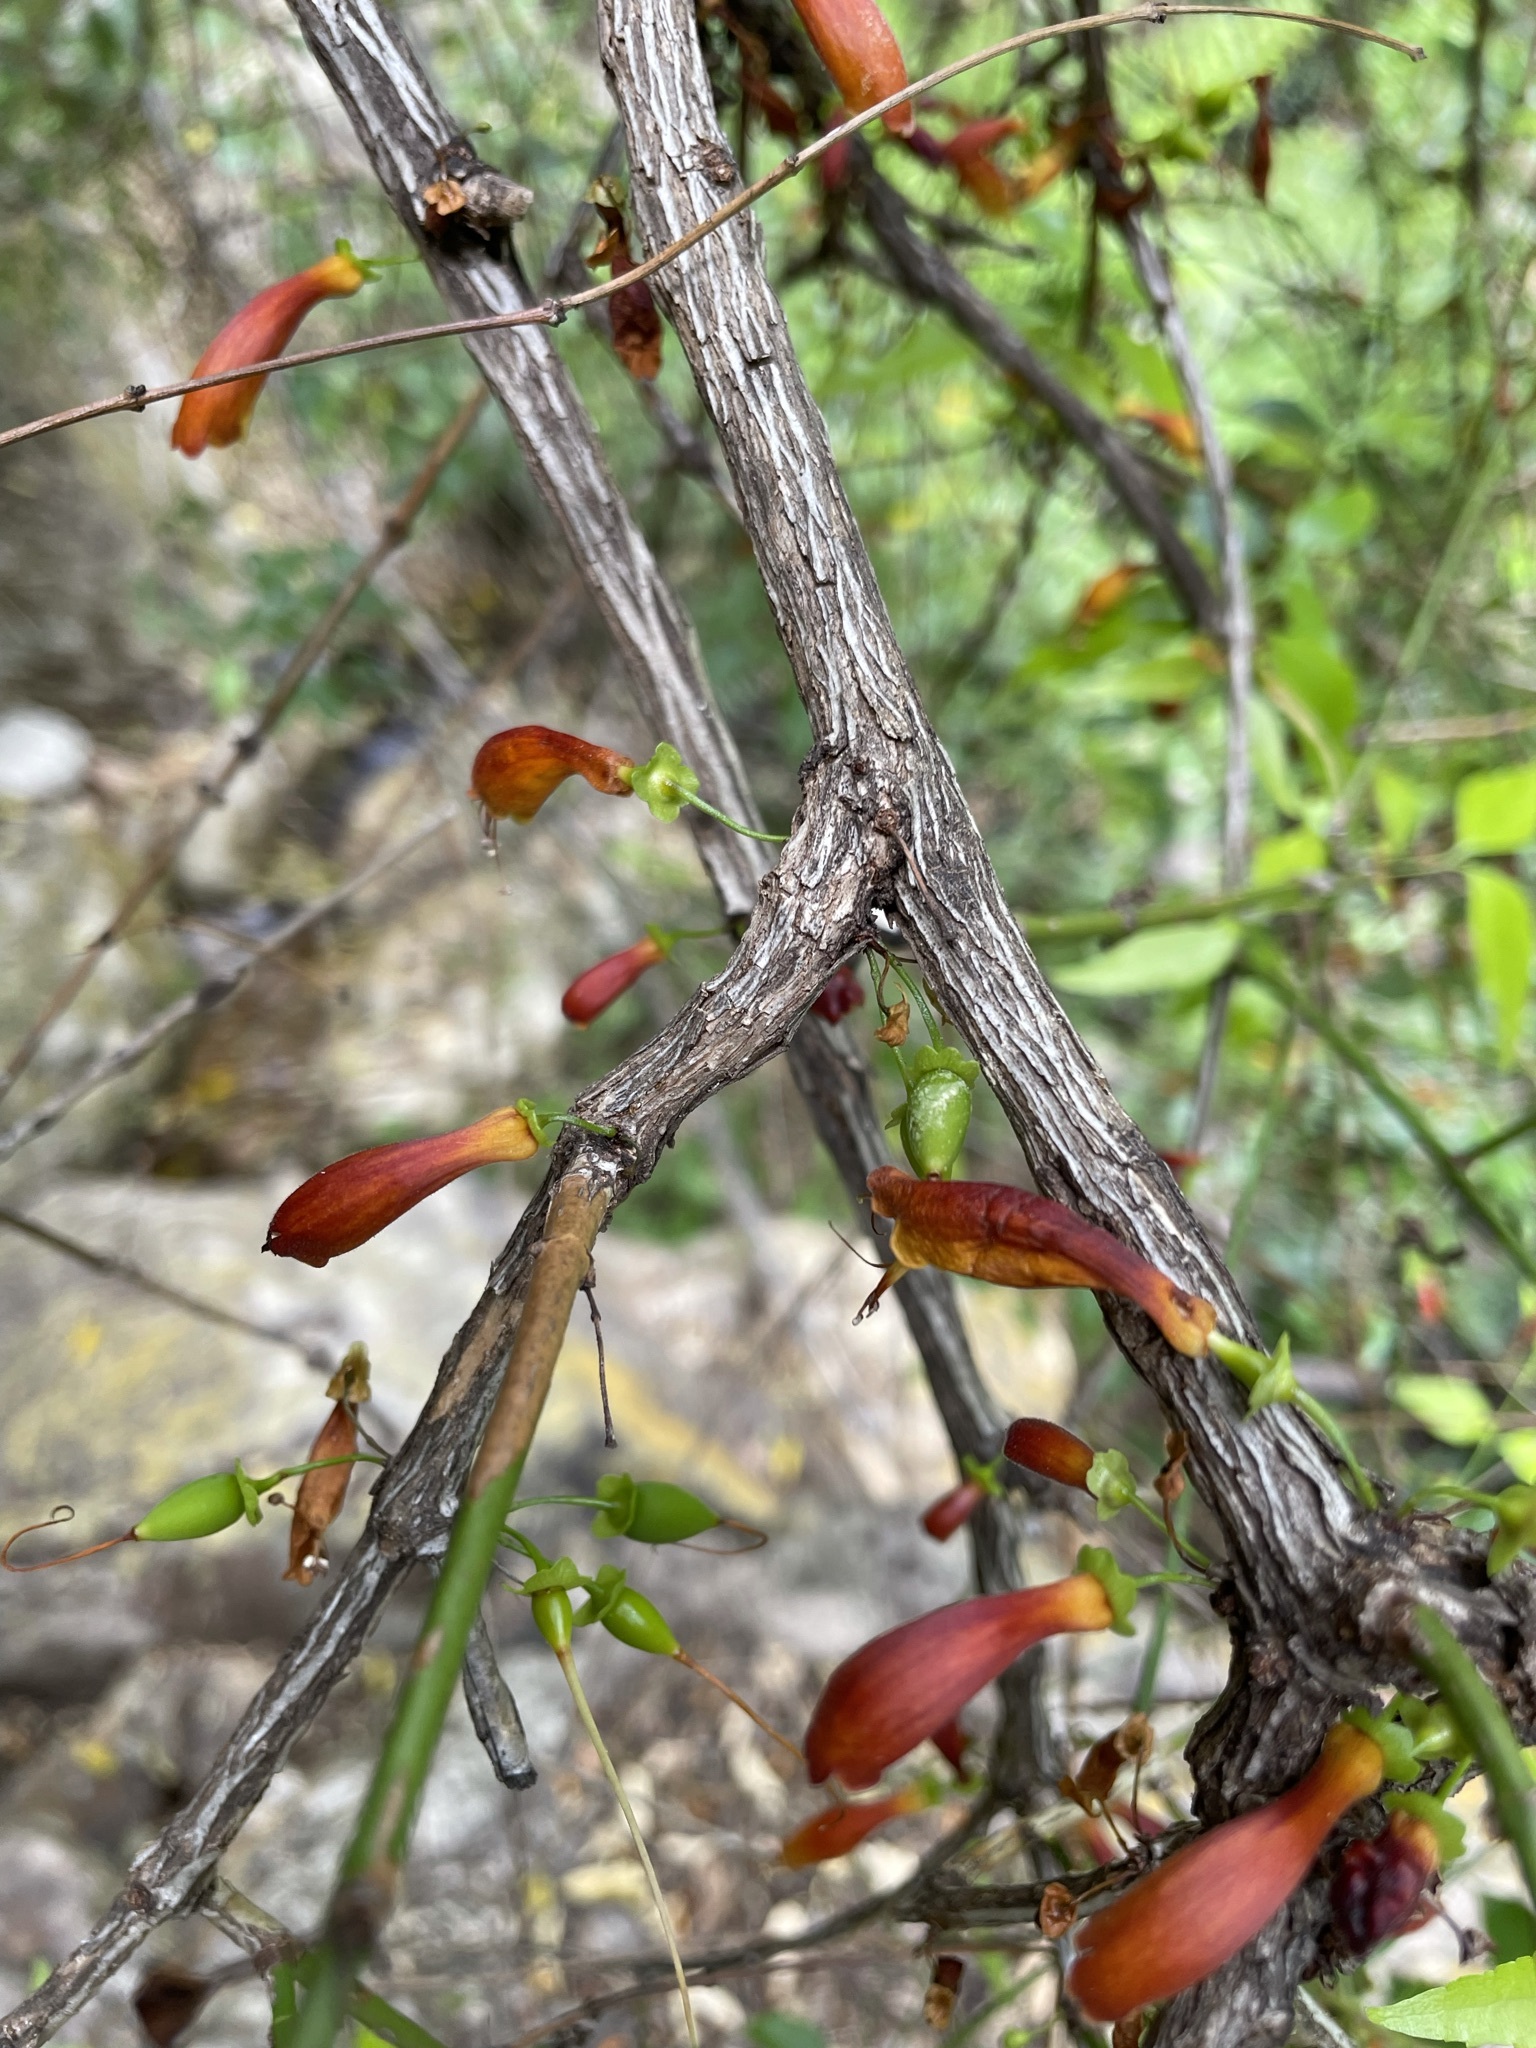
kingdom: Plantae
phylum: Tracheophyta
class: Magnoliopsida
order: Lamiales
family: Stilbaceae
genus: Halleria
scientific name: Halleria lucida
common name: Tree fuschia
